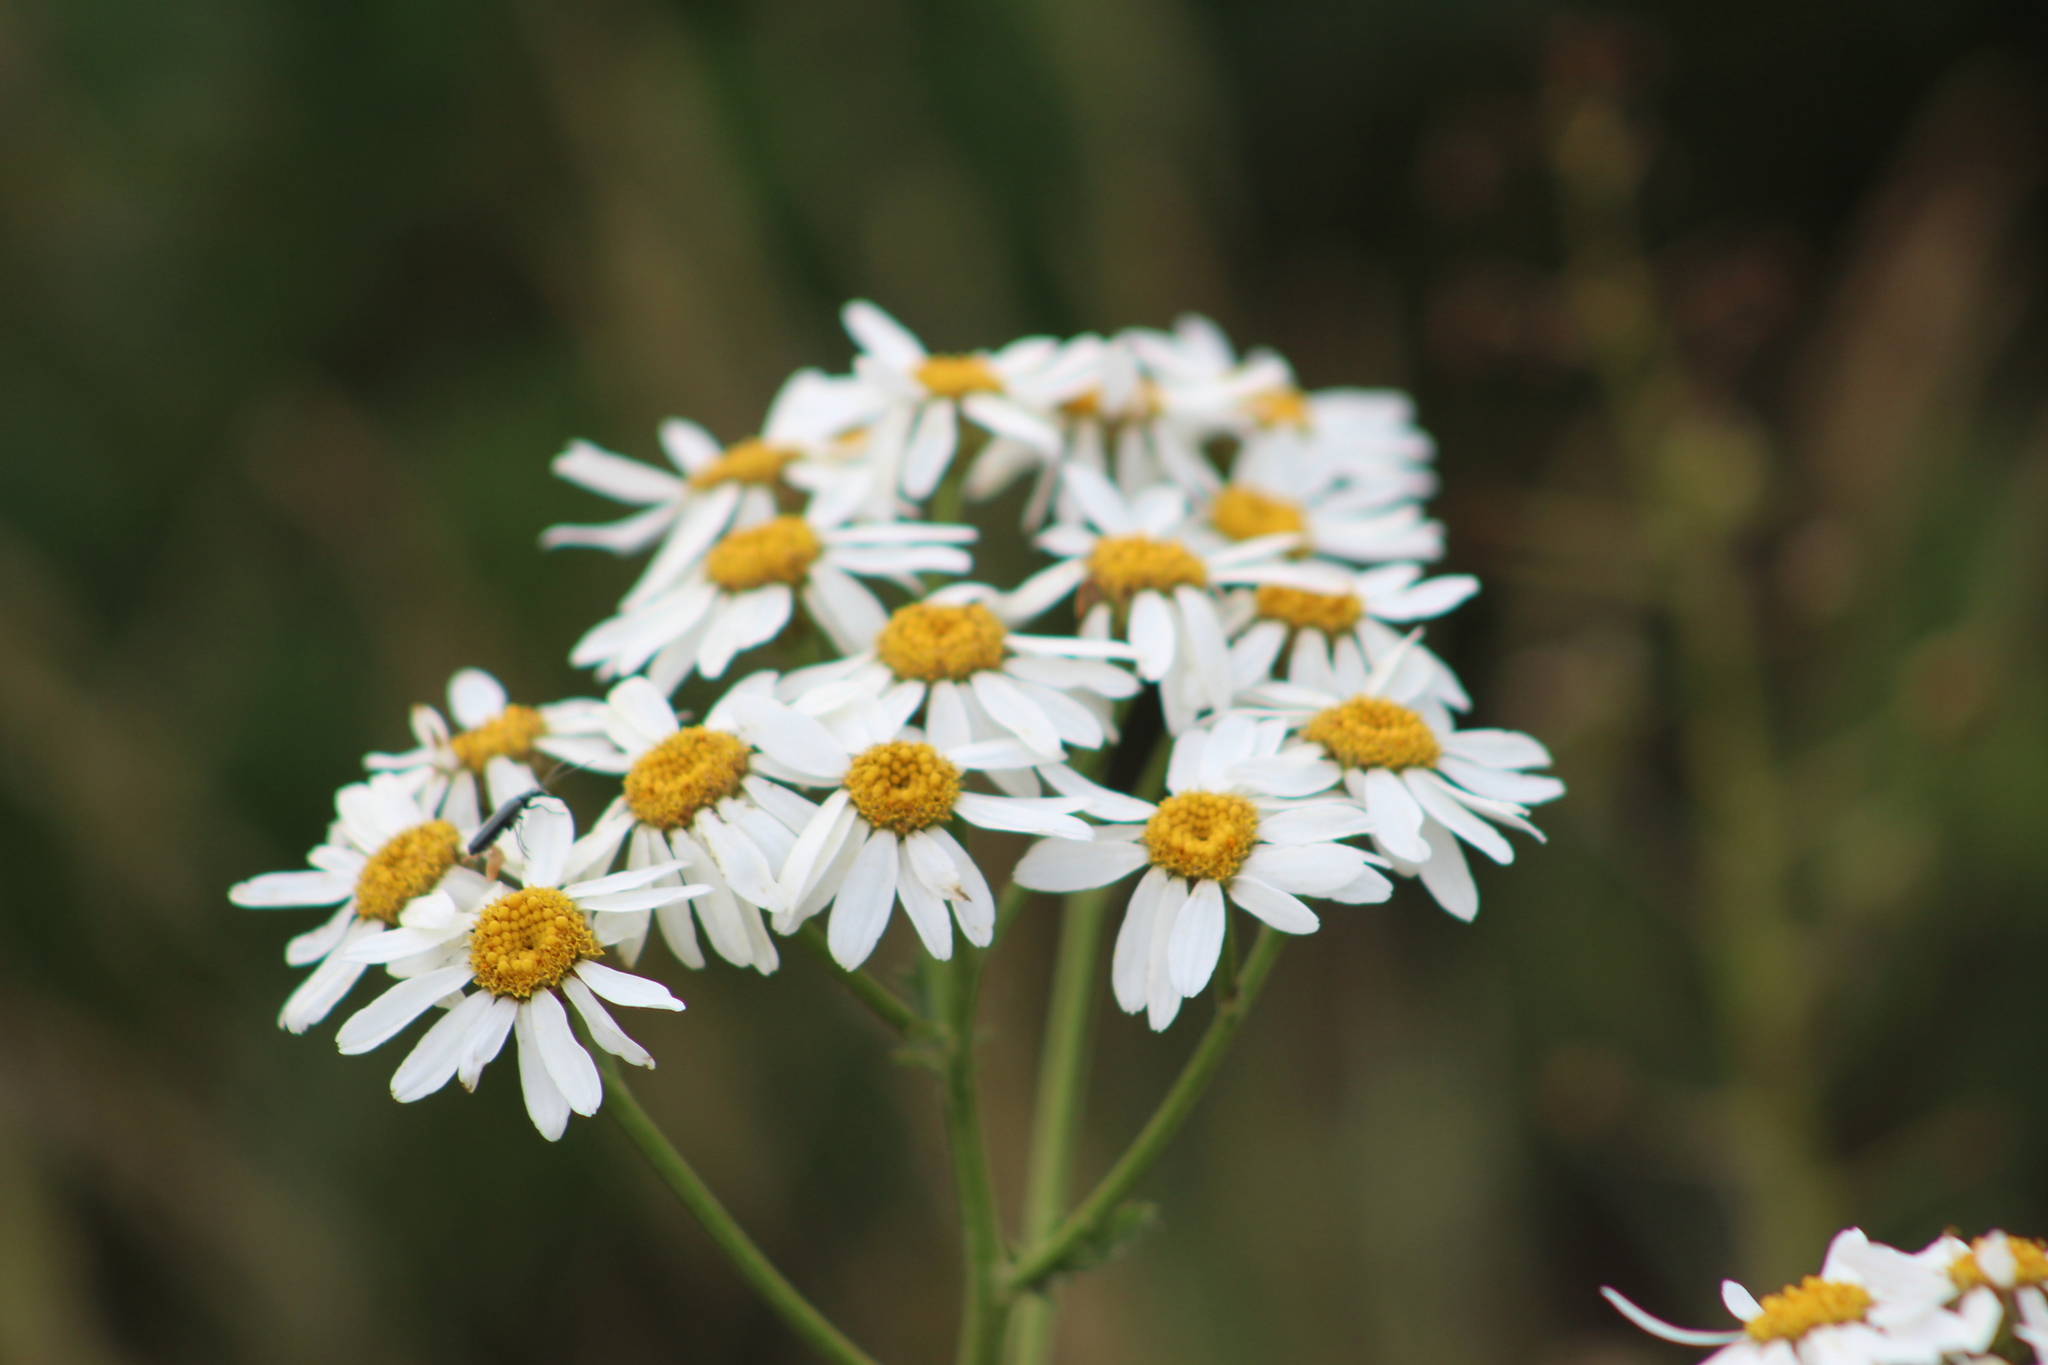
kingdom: Plantae
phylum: Tracheophyta
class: Magnoliopsida
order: Asterales
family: Asteraceae
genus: Tanacetum
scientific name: Tanacetum corymbosum
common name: Scentless feverfew
